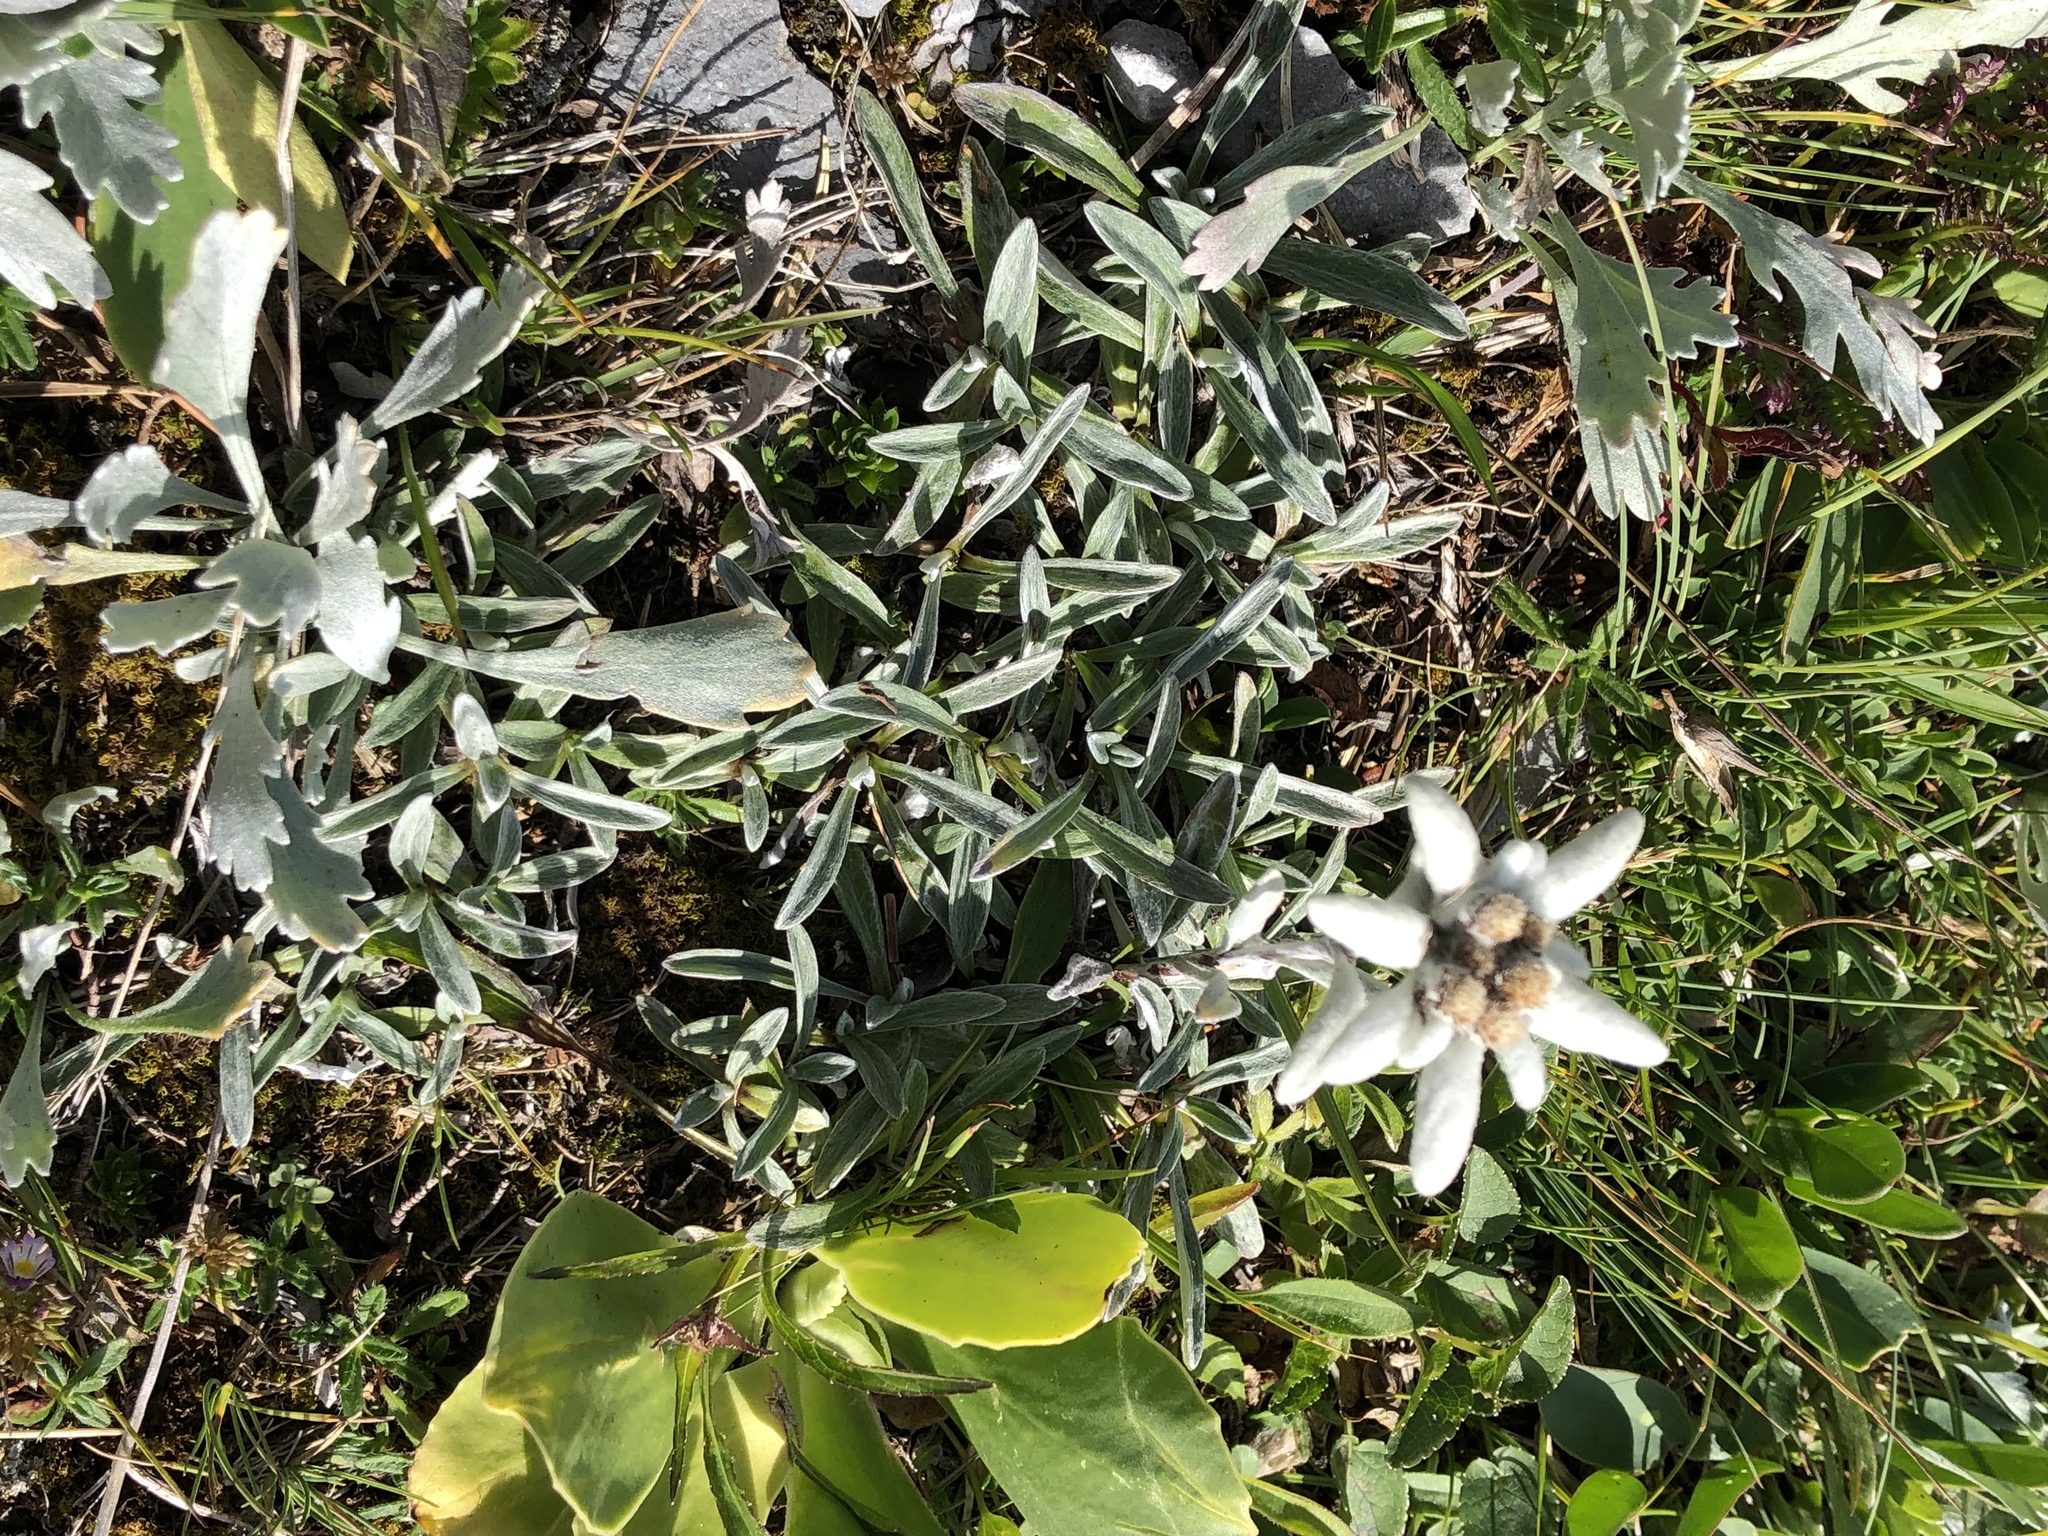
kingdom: Plantae
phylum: Tracheophyta
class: Magnoliopsida
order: Asterales
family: Asteraceae
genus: Leontopodium
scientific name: Leontopodium nivale
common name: Edelweiss
